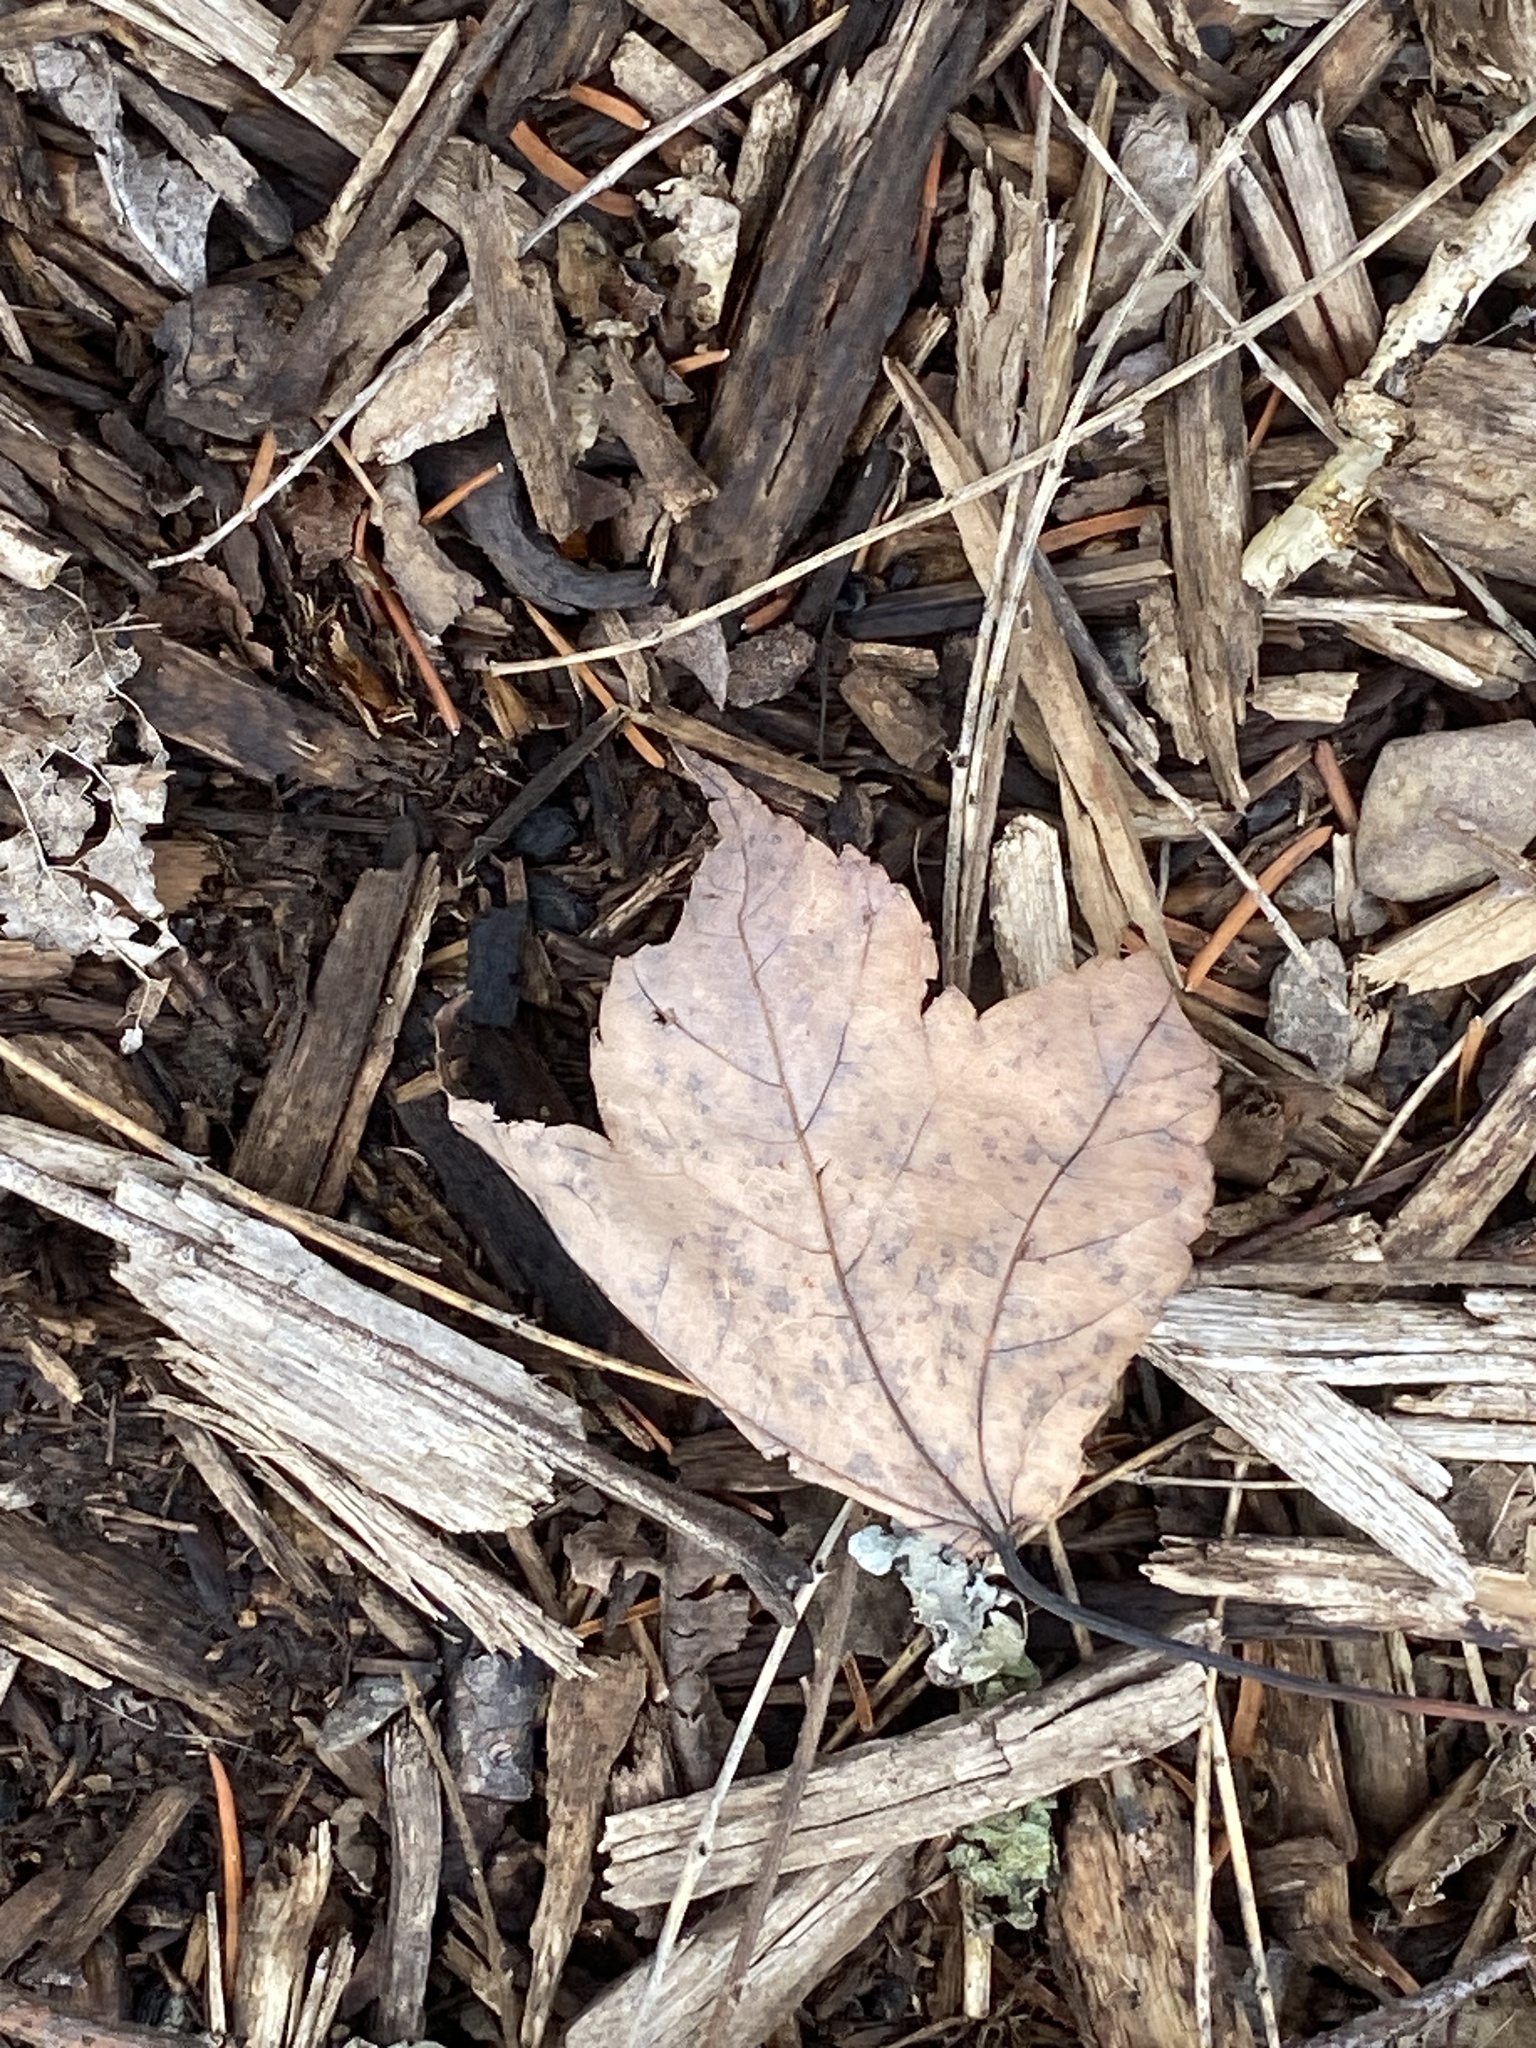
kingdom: Plantae
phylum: Tracheophyta
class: Magnoliopsida
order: Sapindales
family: Sapindaceae
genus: Acer
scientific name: Acer rubrum
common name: Red maple
